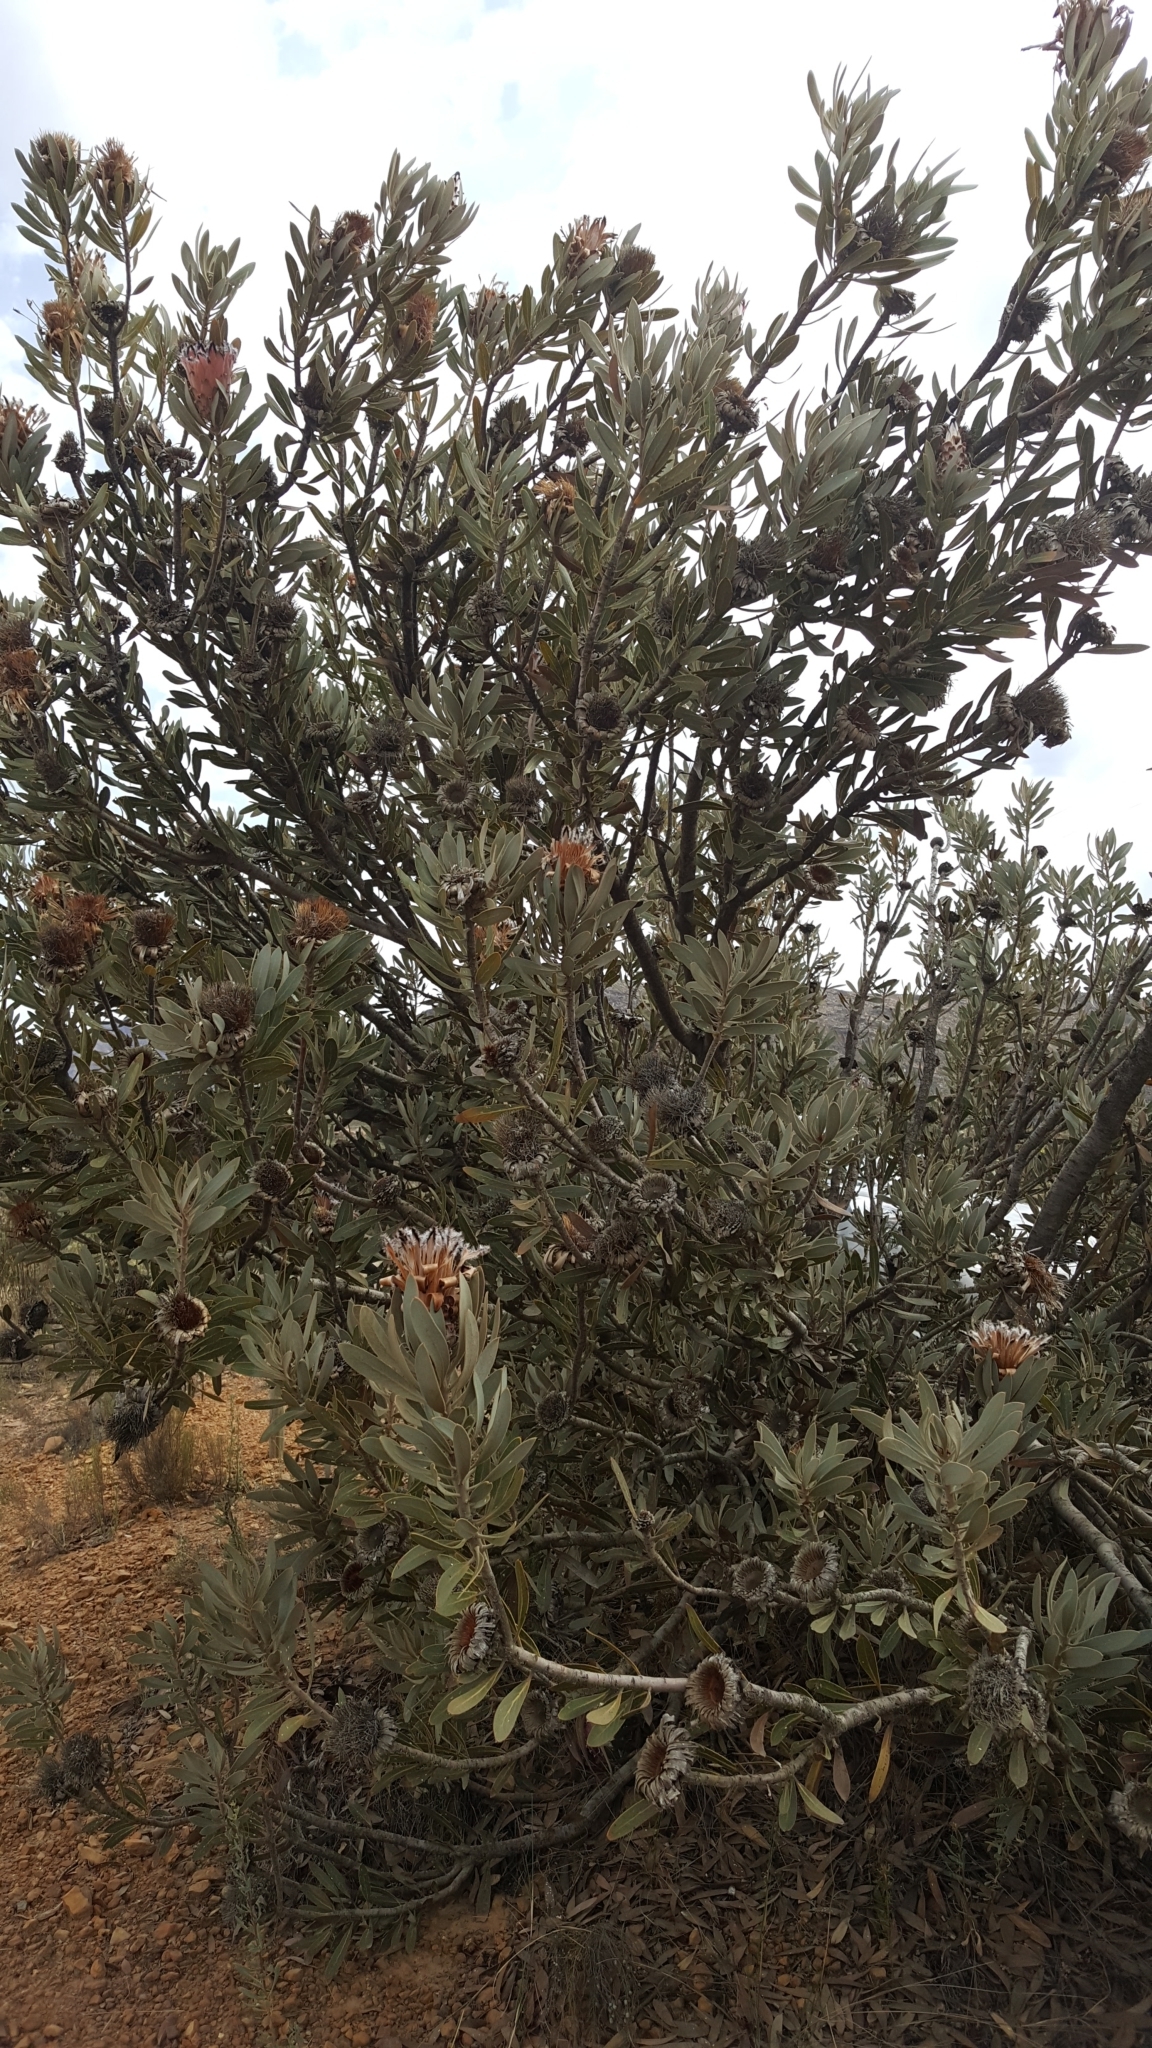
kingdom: Plantae
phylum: Tracheophyta
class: Magnoliopsida
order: Proteales
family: Proteaceae
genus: Protea
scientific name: Protea laurifolia
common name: Grey-leaf sugarbsh
